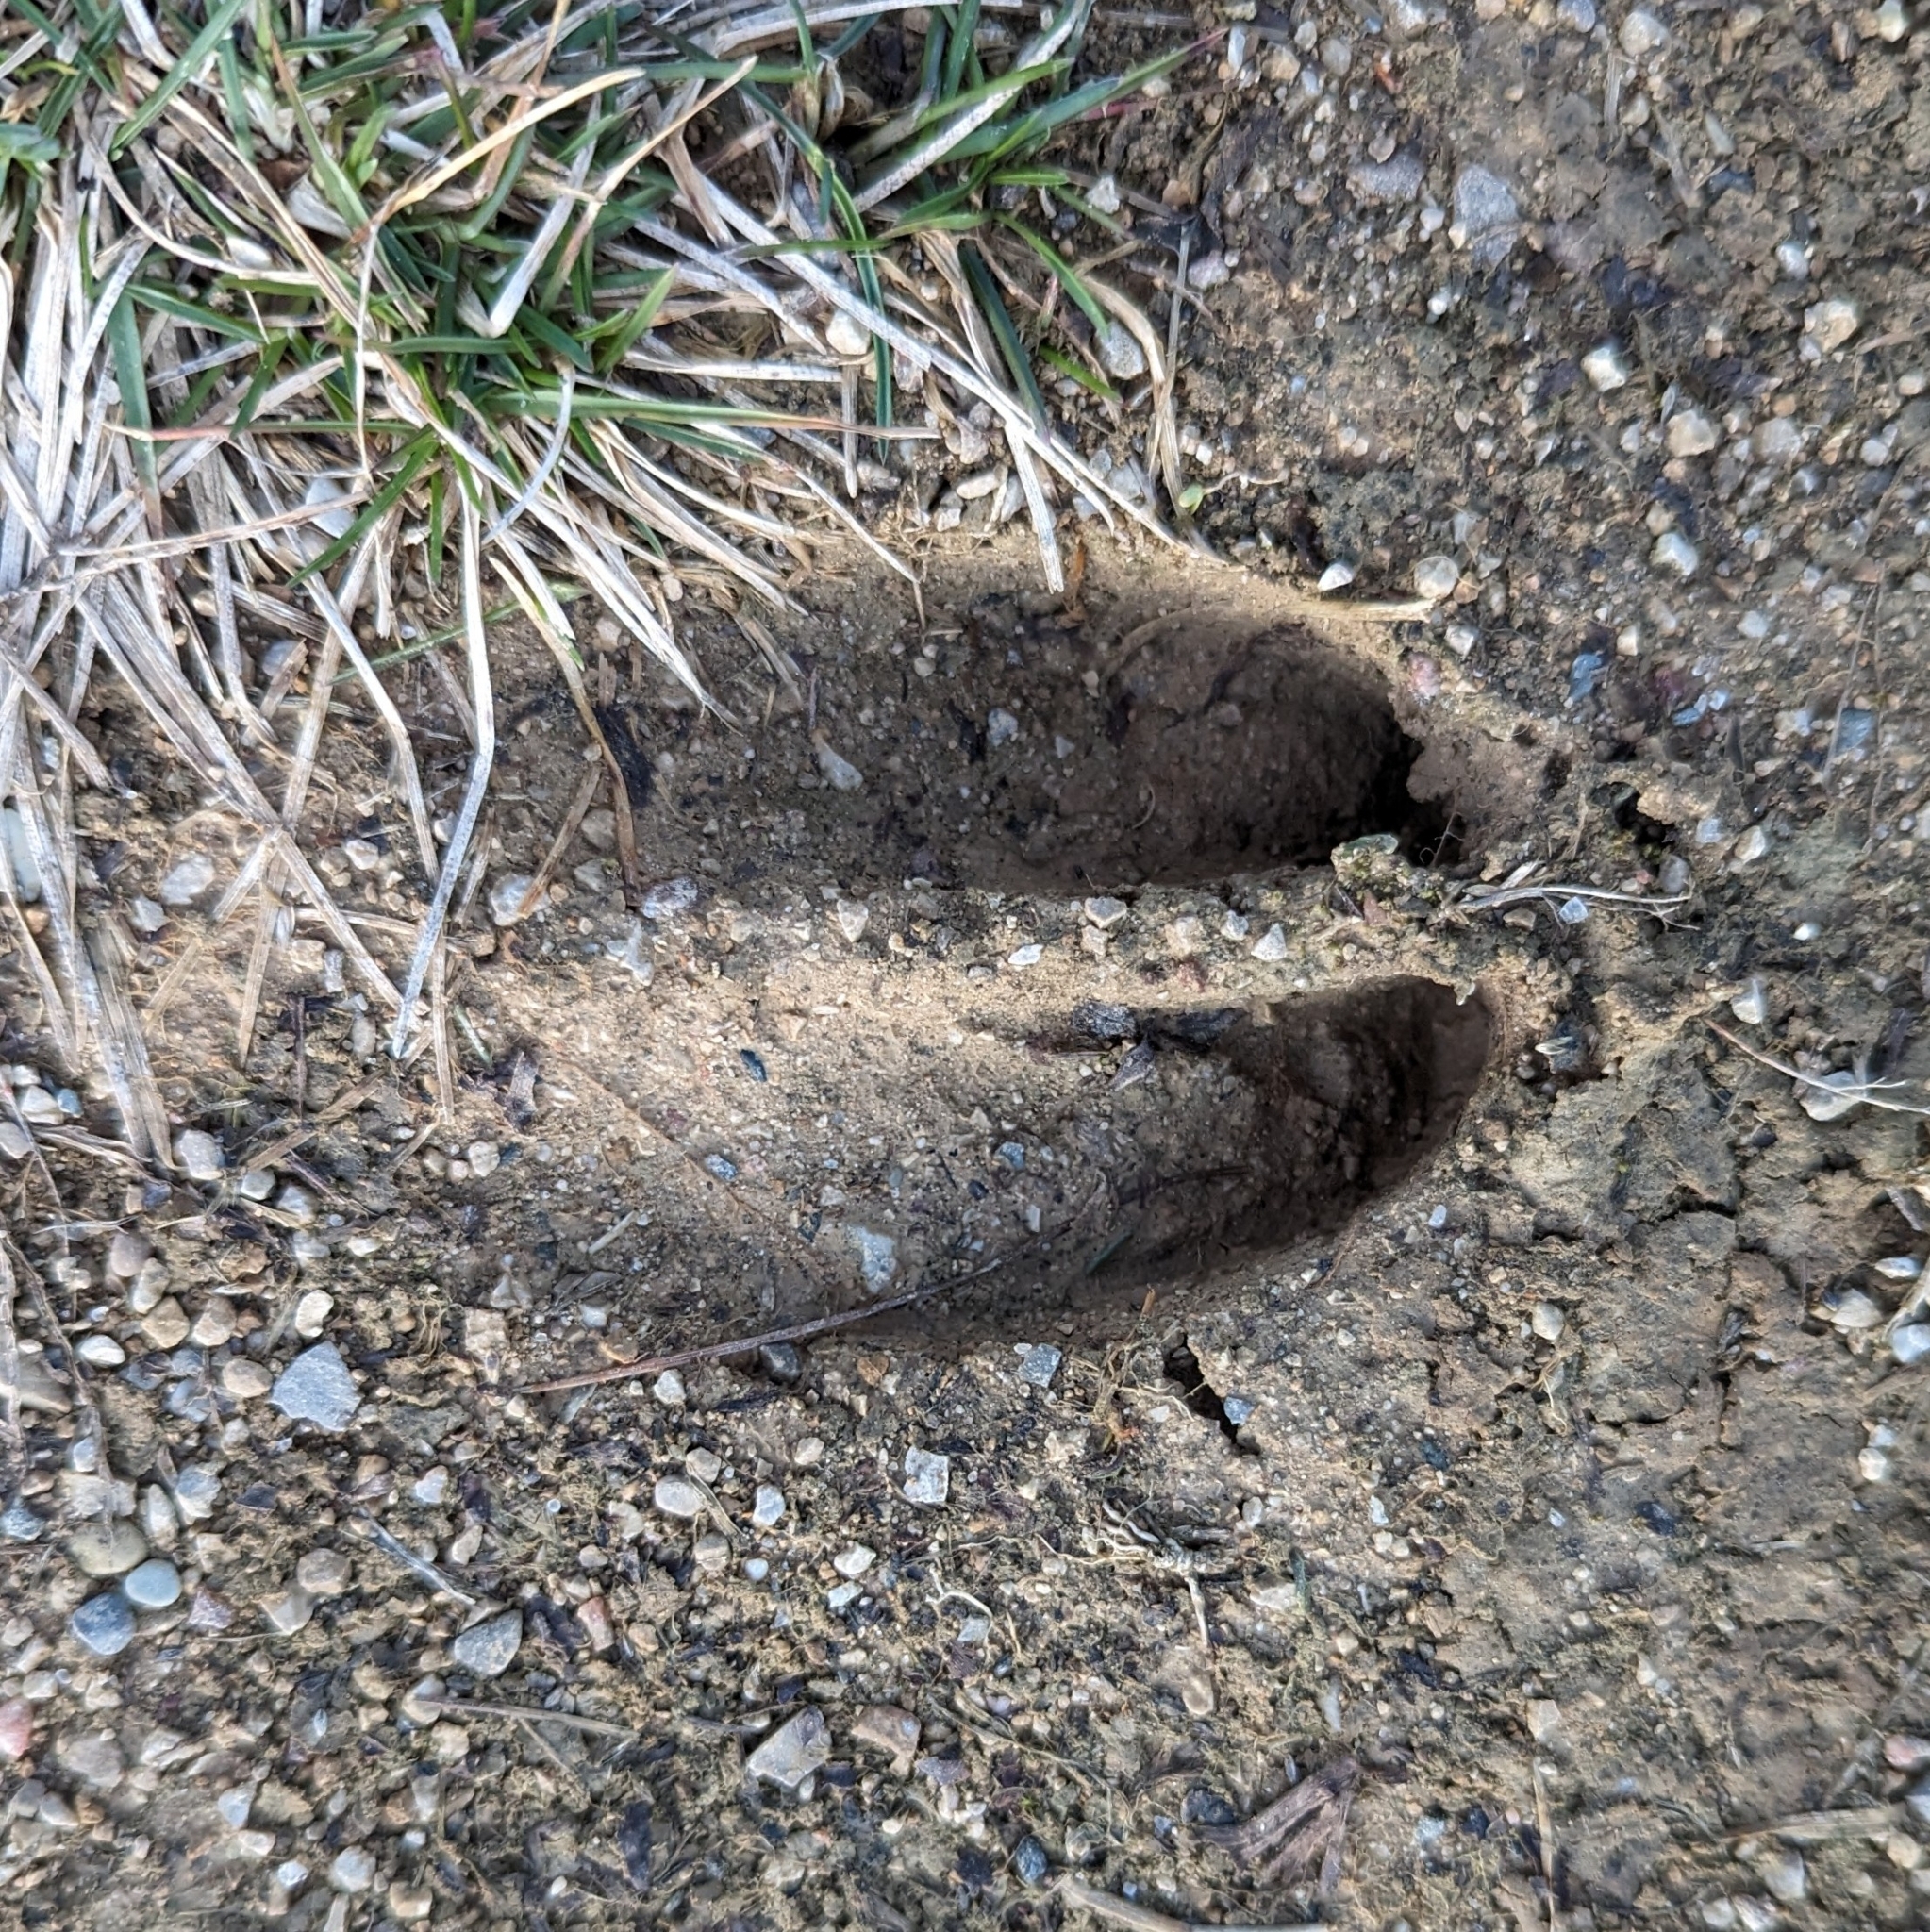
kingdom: Animalia
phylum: Chordata
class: Mammalia
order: Artiodactyla
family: Cervidae
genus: Odocoileus
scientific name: Odocoileus virginianus
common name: White-tailed deer
